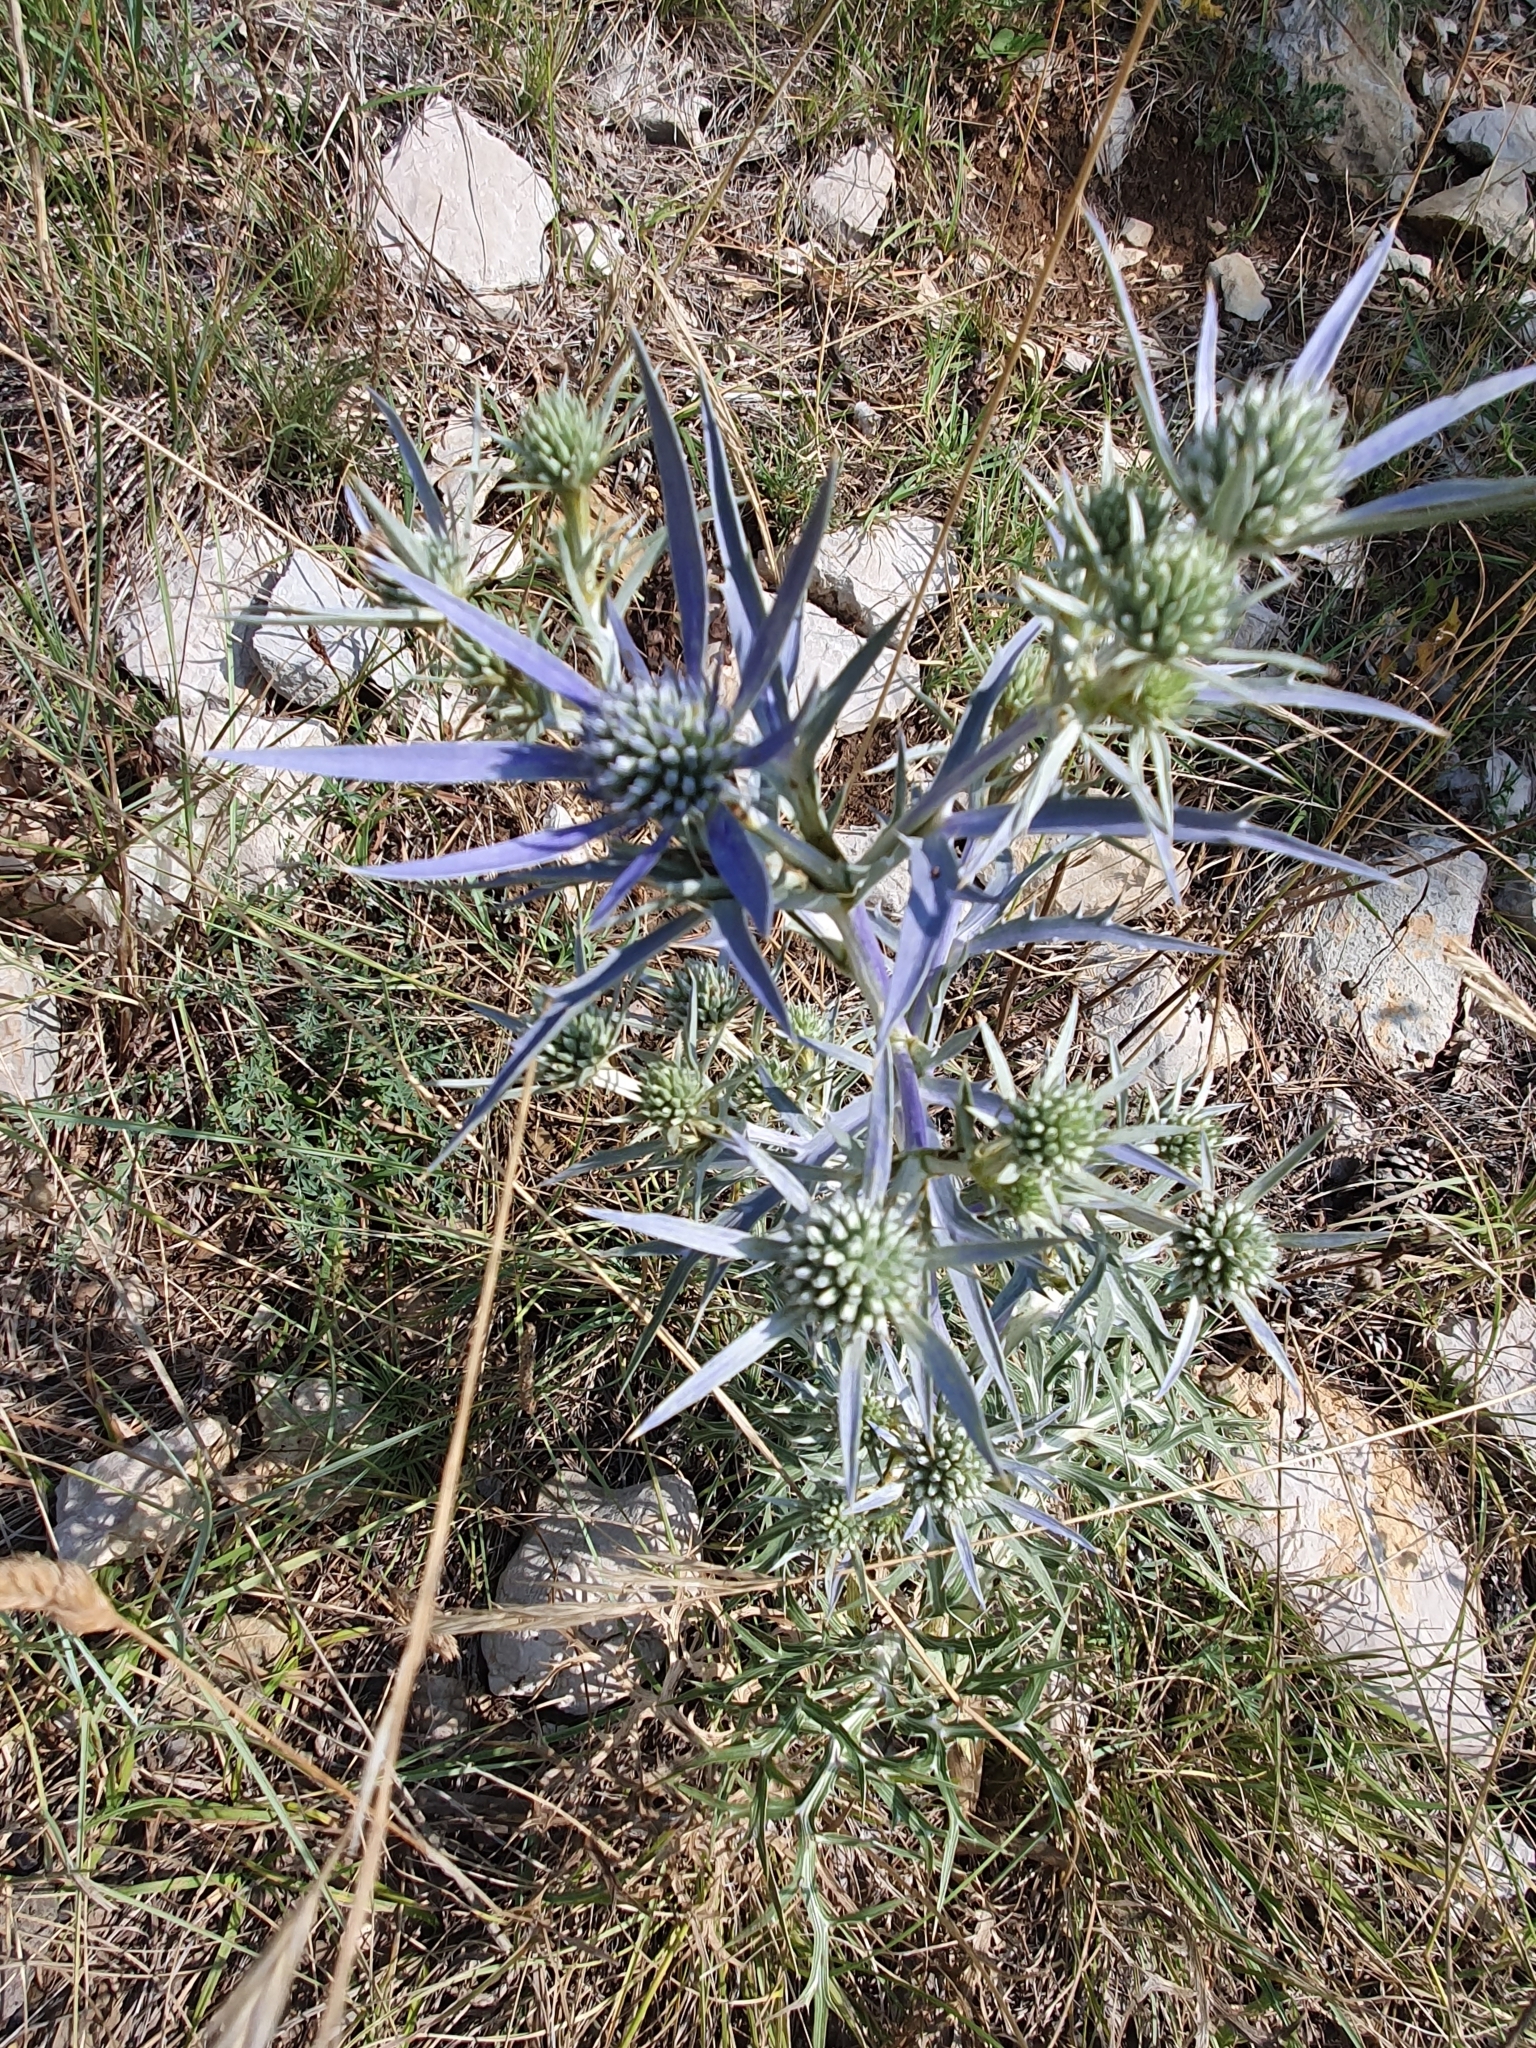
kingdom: Plantae
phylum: Tracheophyta
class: Magnoliopsida
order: Apiales
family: Apiaceae
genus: Eryngium
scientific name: Eryngium amethystinum
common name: Amethyst eryngo
